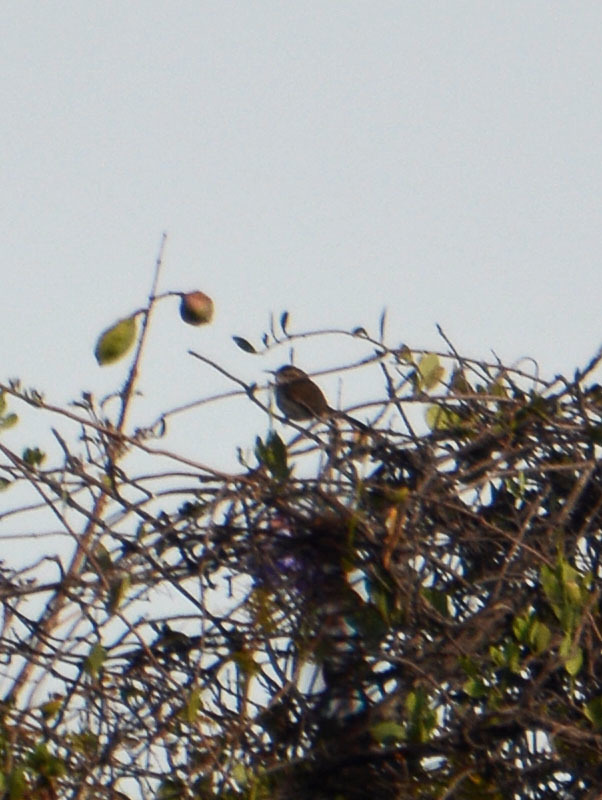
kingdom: Animalia
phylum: Chordata
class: Aves
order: Passeriformes
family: Troglodytidae
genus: Thryomanes
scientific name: Thryomanes bewickii
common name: Bewick's wren
